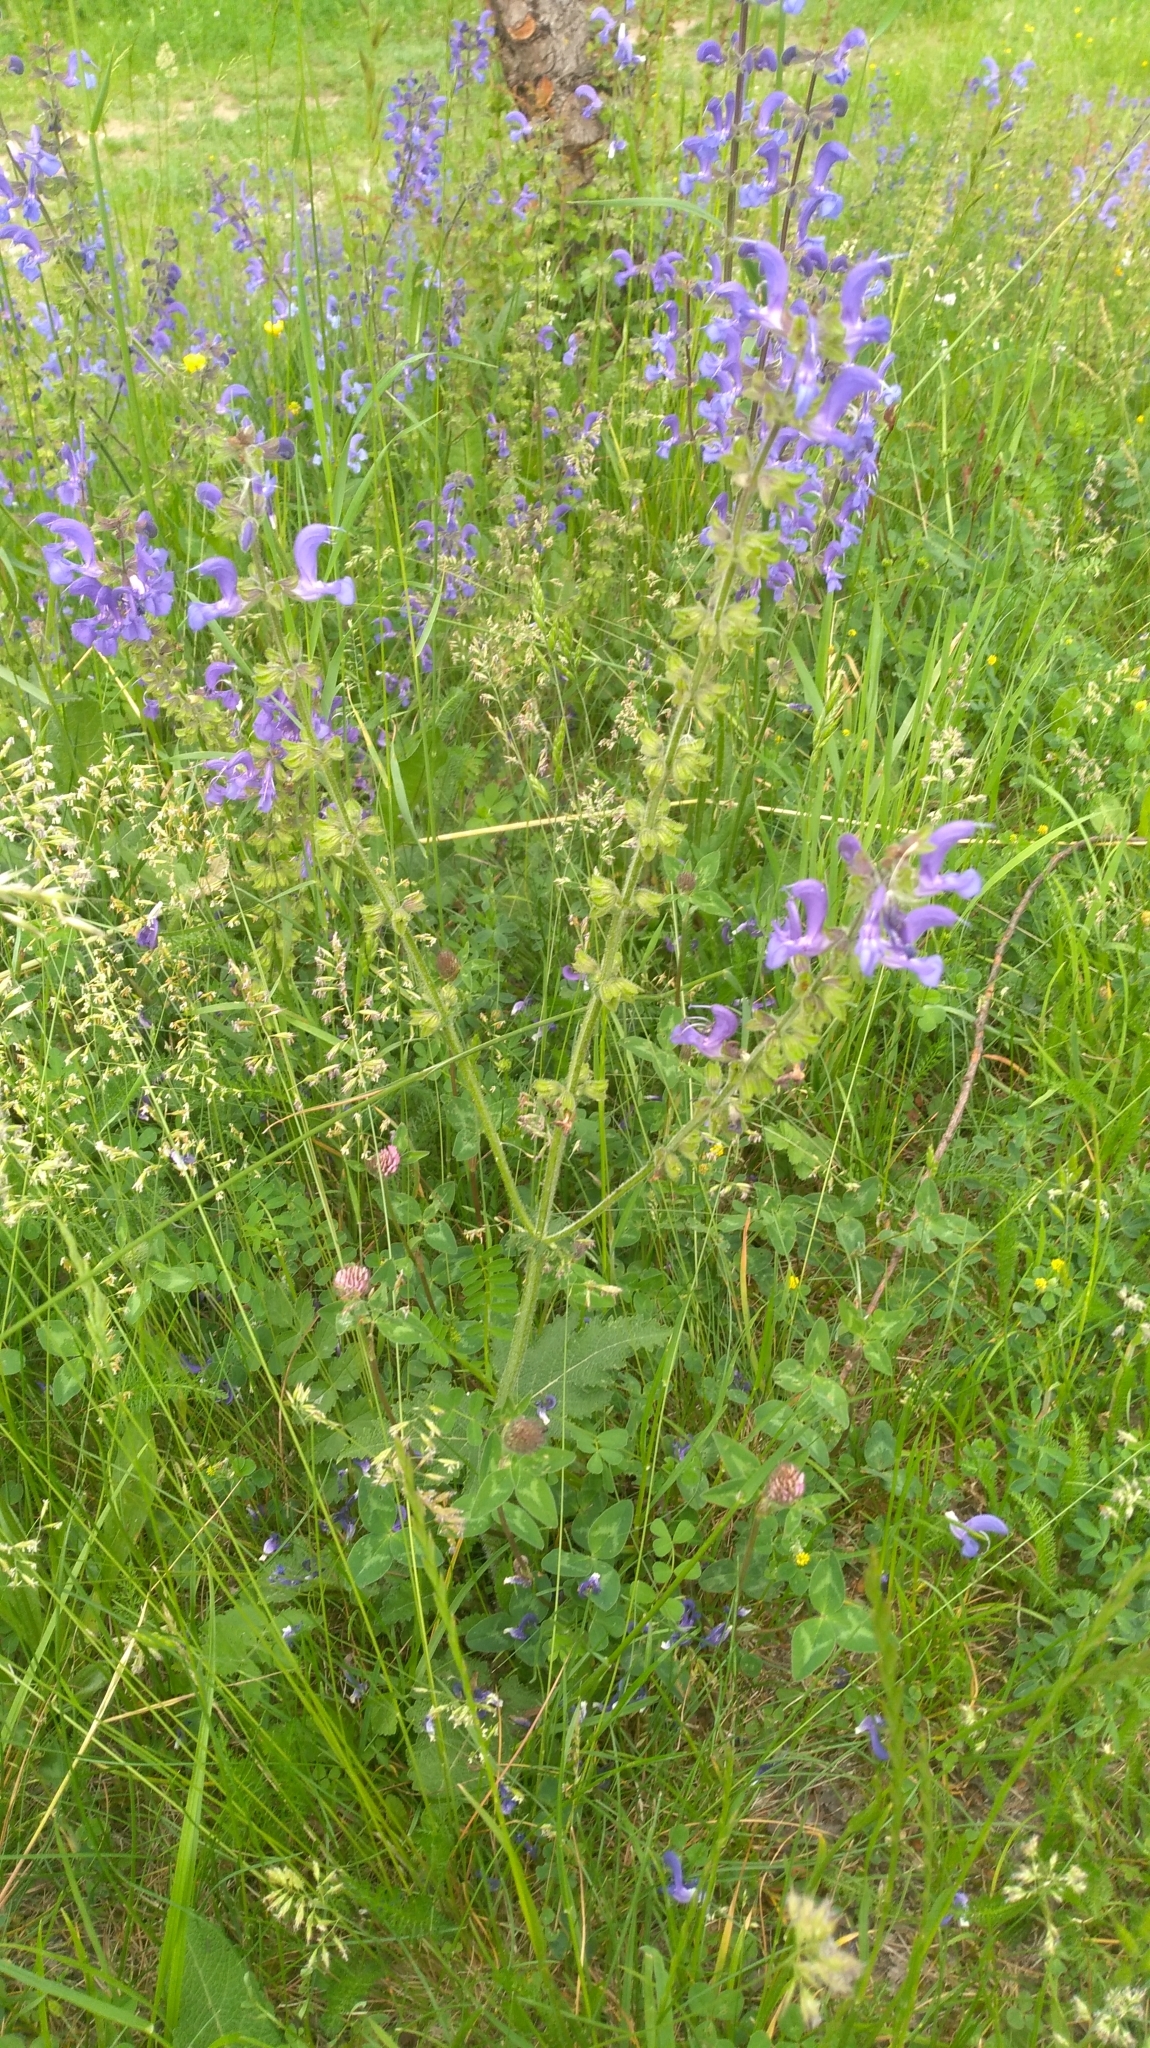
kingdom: Plantae
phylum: Tracheophyta
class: Magnoliopsida
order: Lamiales
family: Lamiaceae
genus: Salvia
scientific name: Salvia pratensis
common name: Meadow sage
